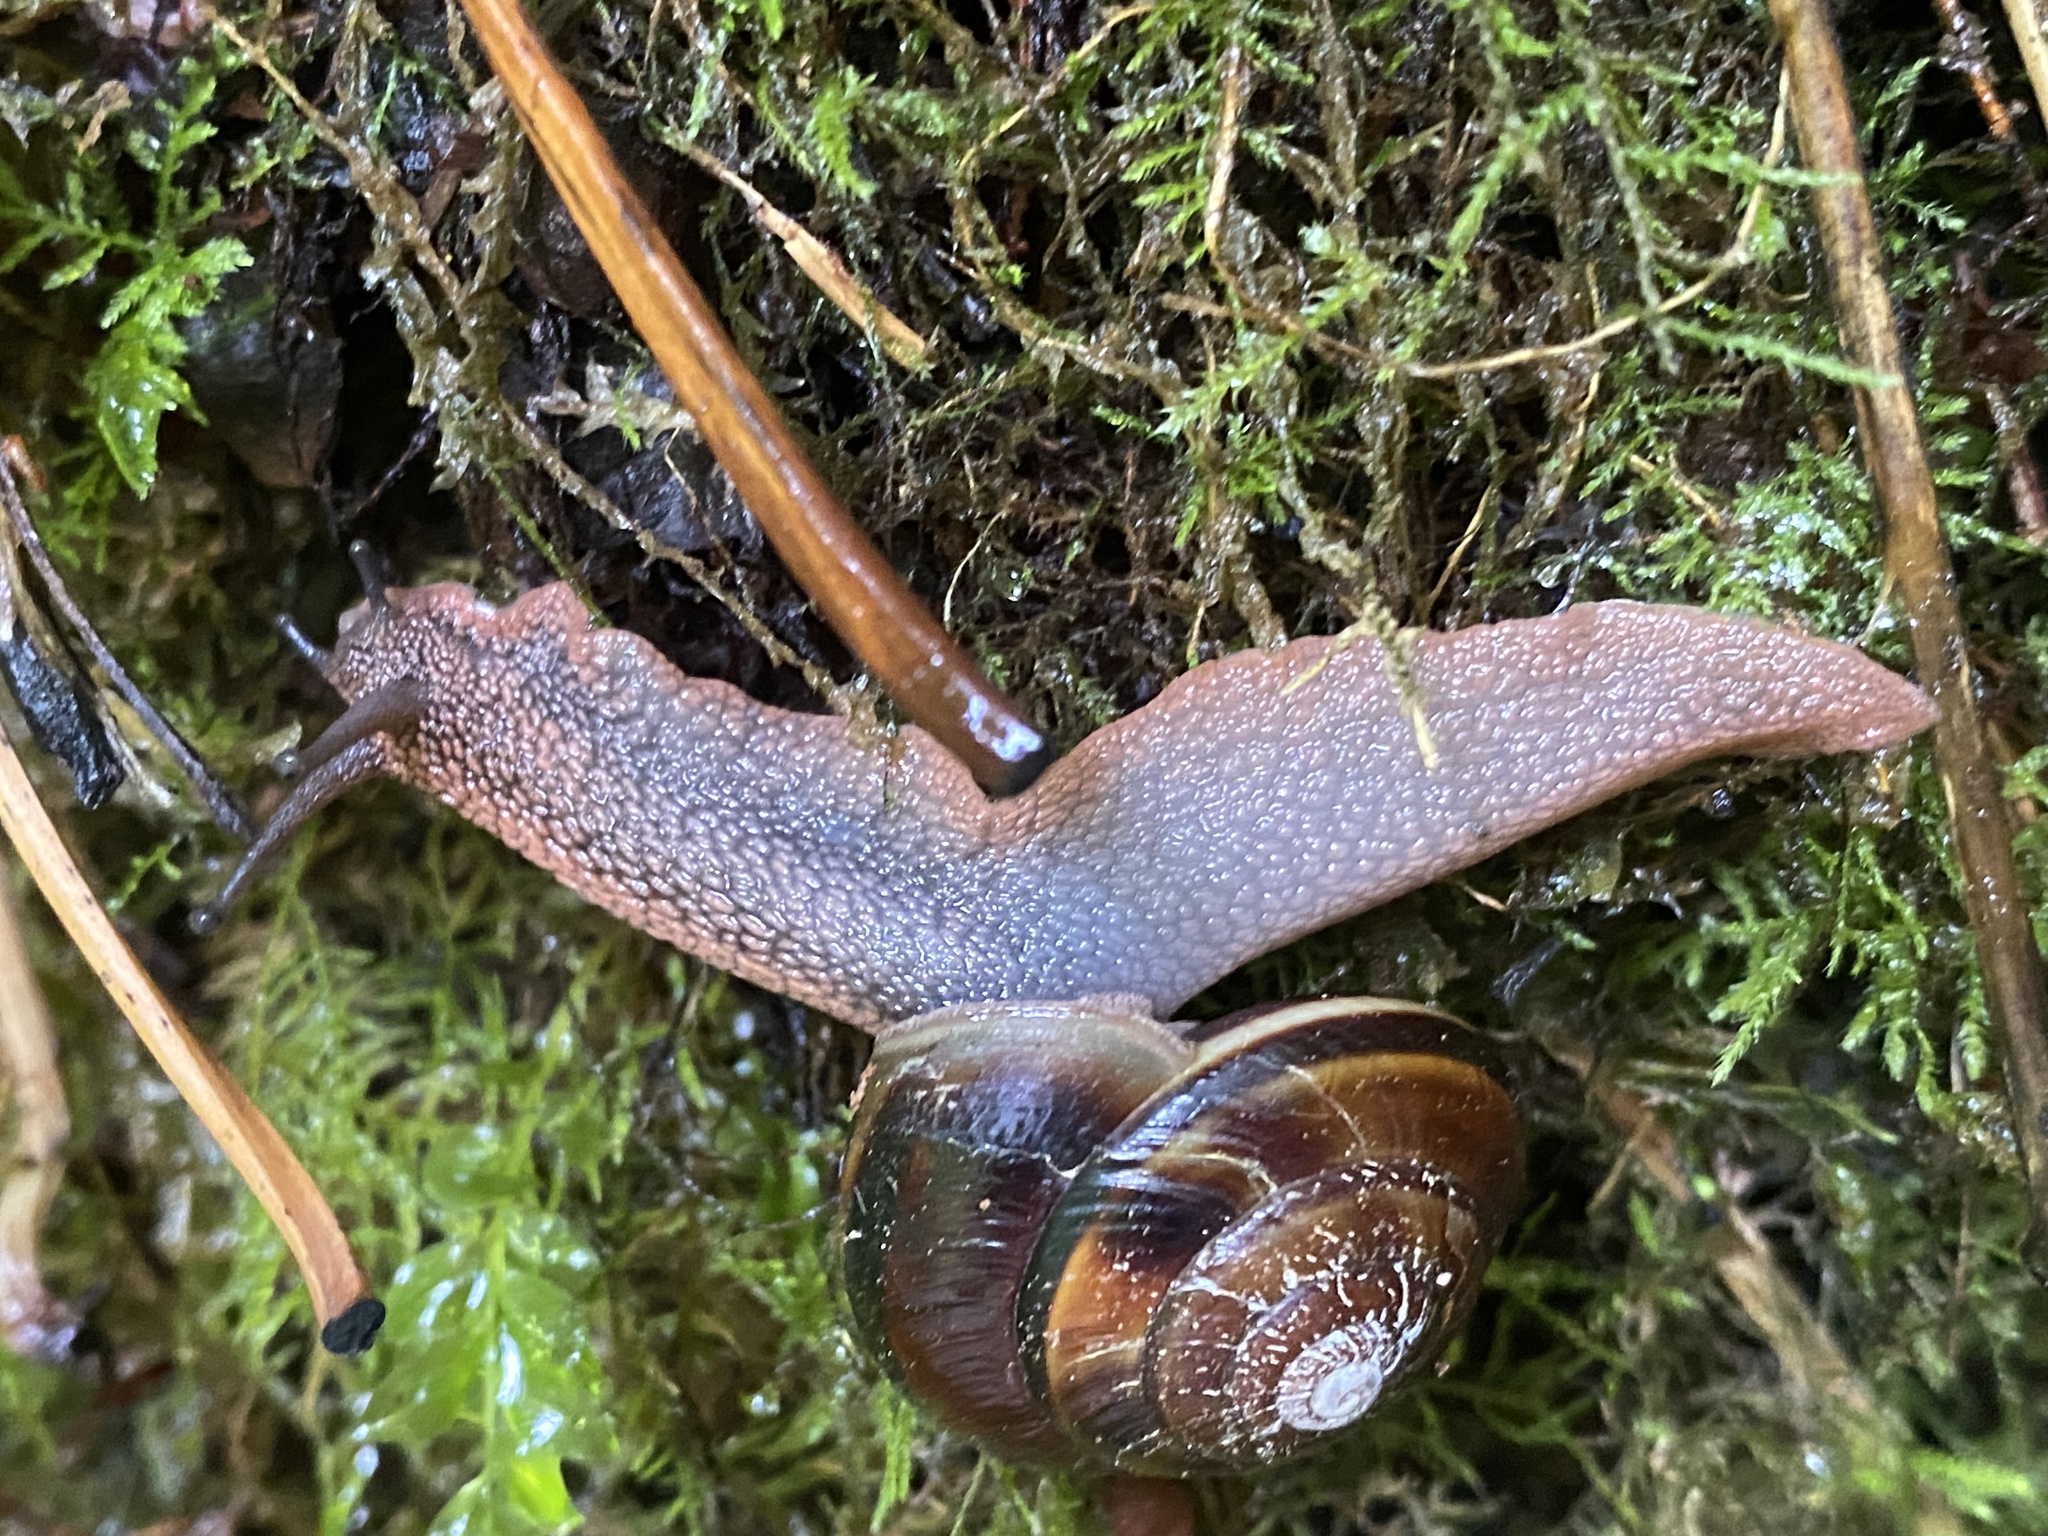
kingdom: Animalia
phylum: Mollusca
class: Gastropoda
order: Stylommatophora
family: Xanthonychidae
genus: Monadenia
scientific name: Monadenia fidelis
